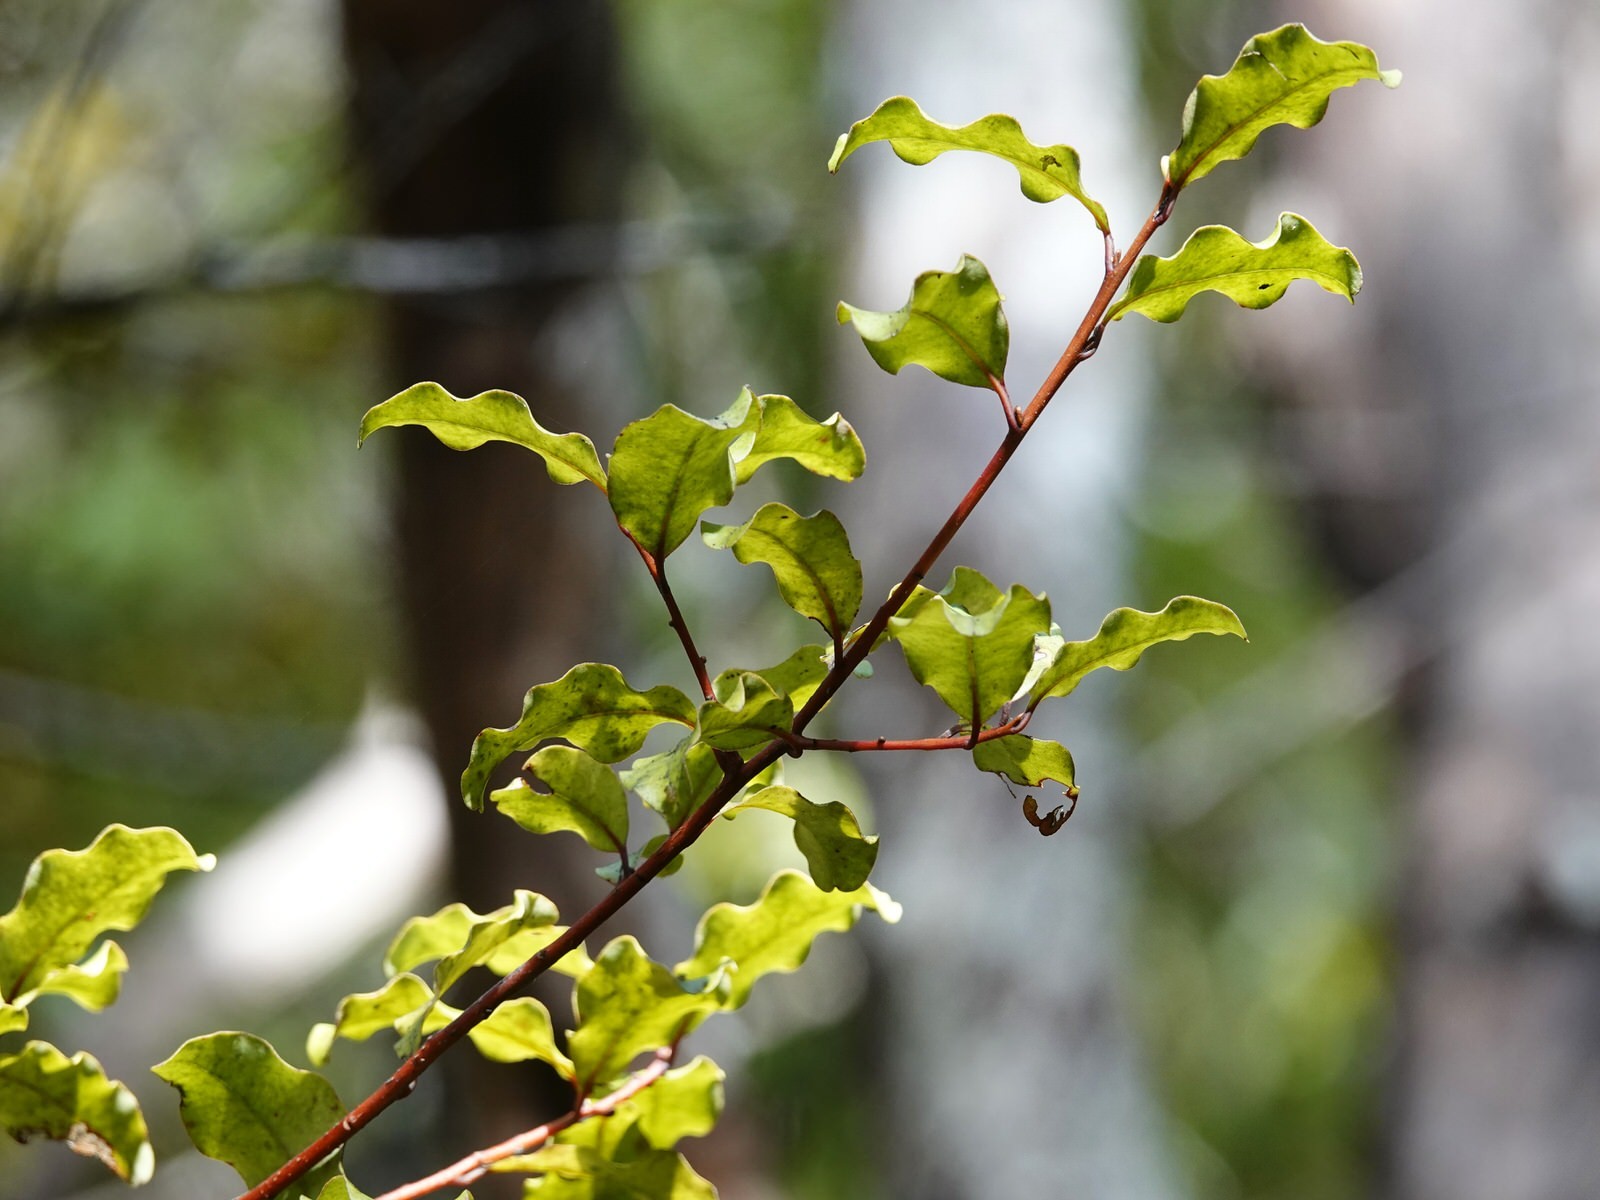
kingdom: Plantae
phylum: Tracheophyta
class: Magnoliopsida
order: Ericales
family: Primulaceae
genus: Myrsine
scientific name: Myrsine australis
